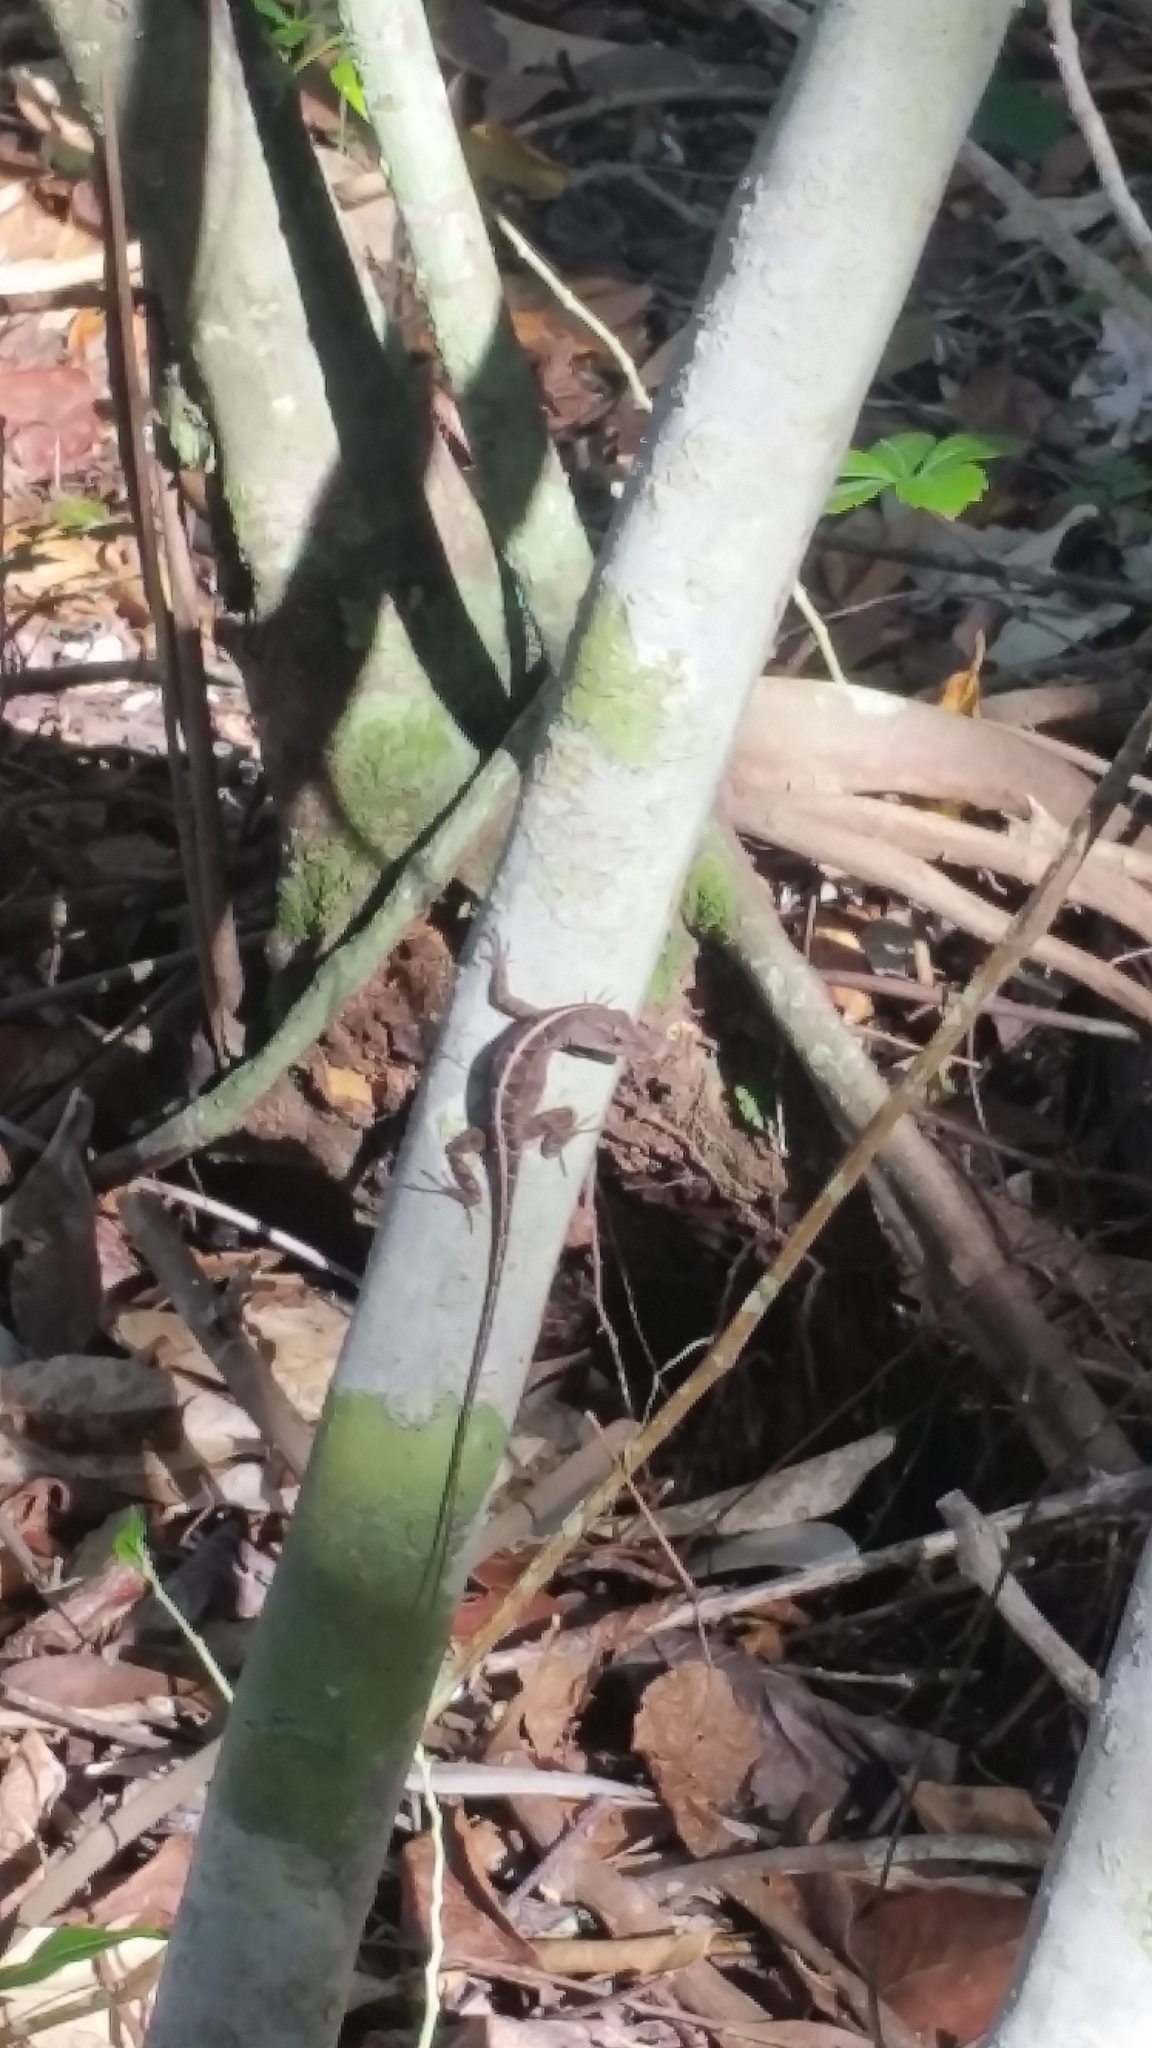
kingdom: Animalia
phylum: Chordata
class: Squamata
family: Dactyloidae
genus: Anolis
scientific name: Anolis sagrei
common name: Brown anole
